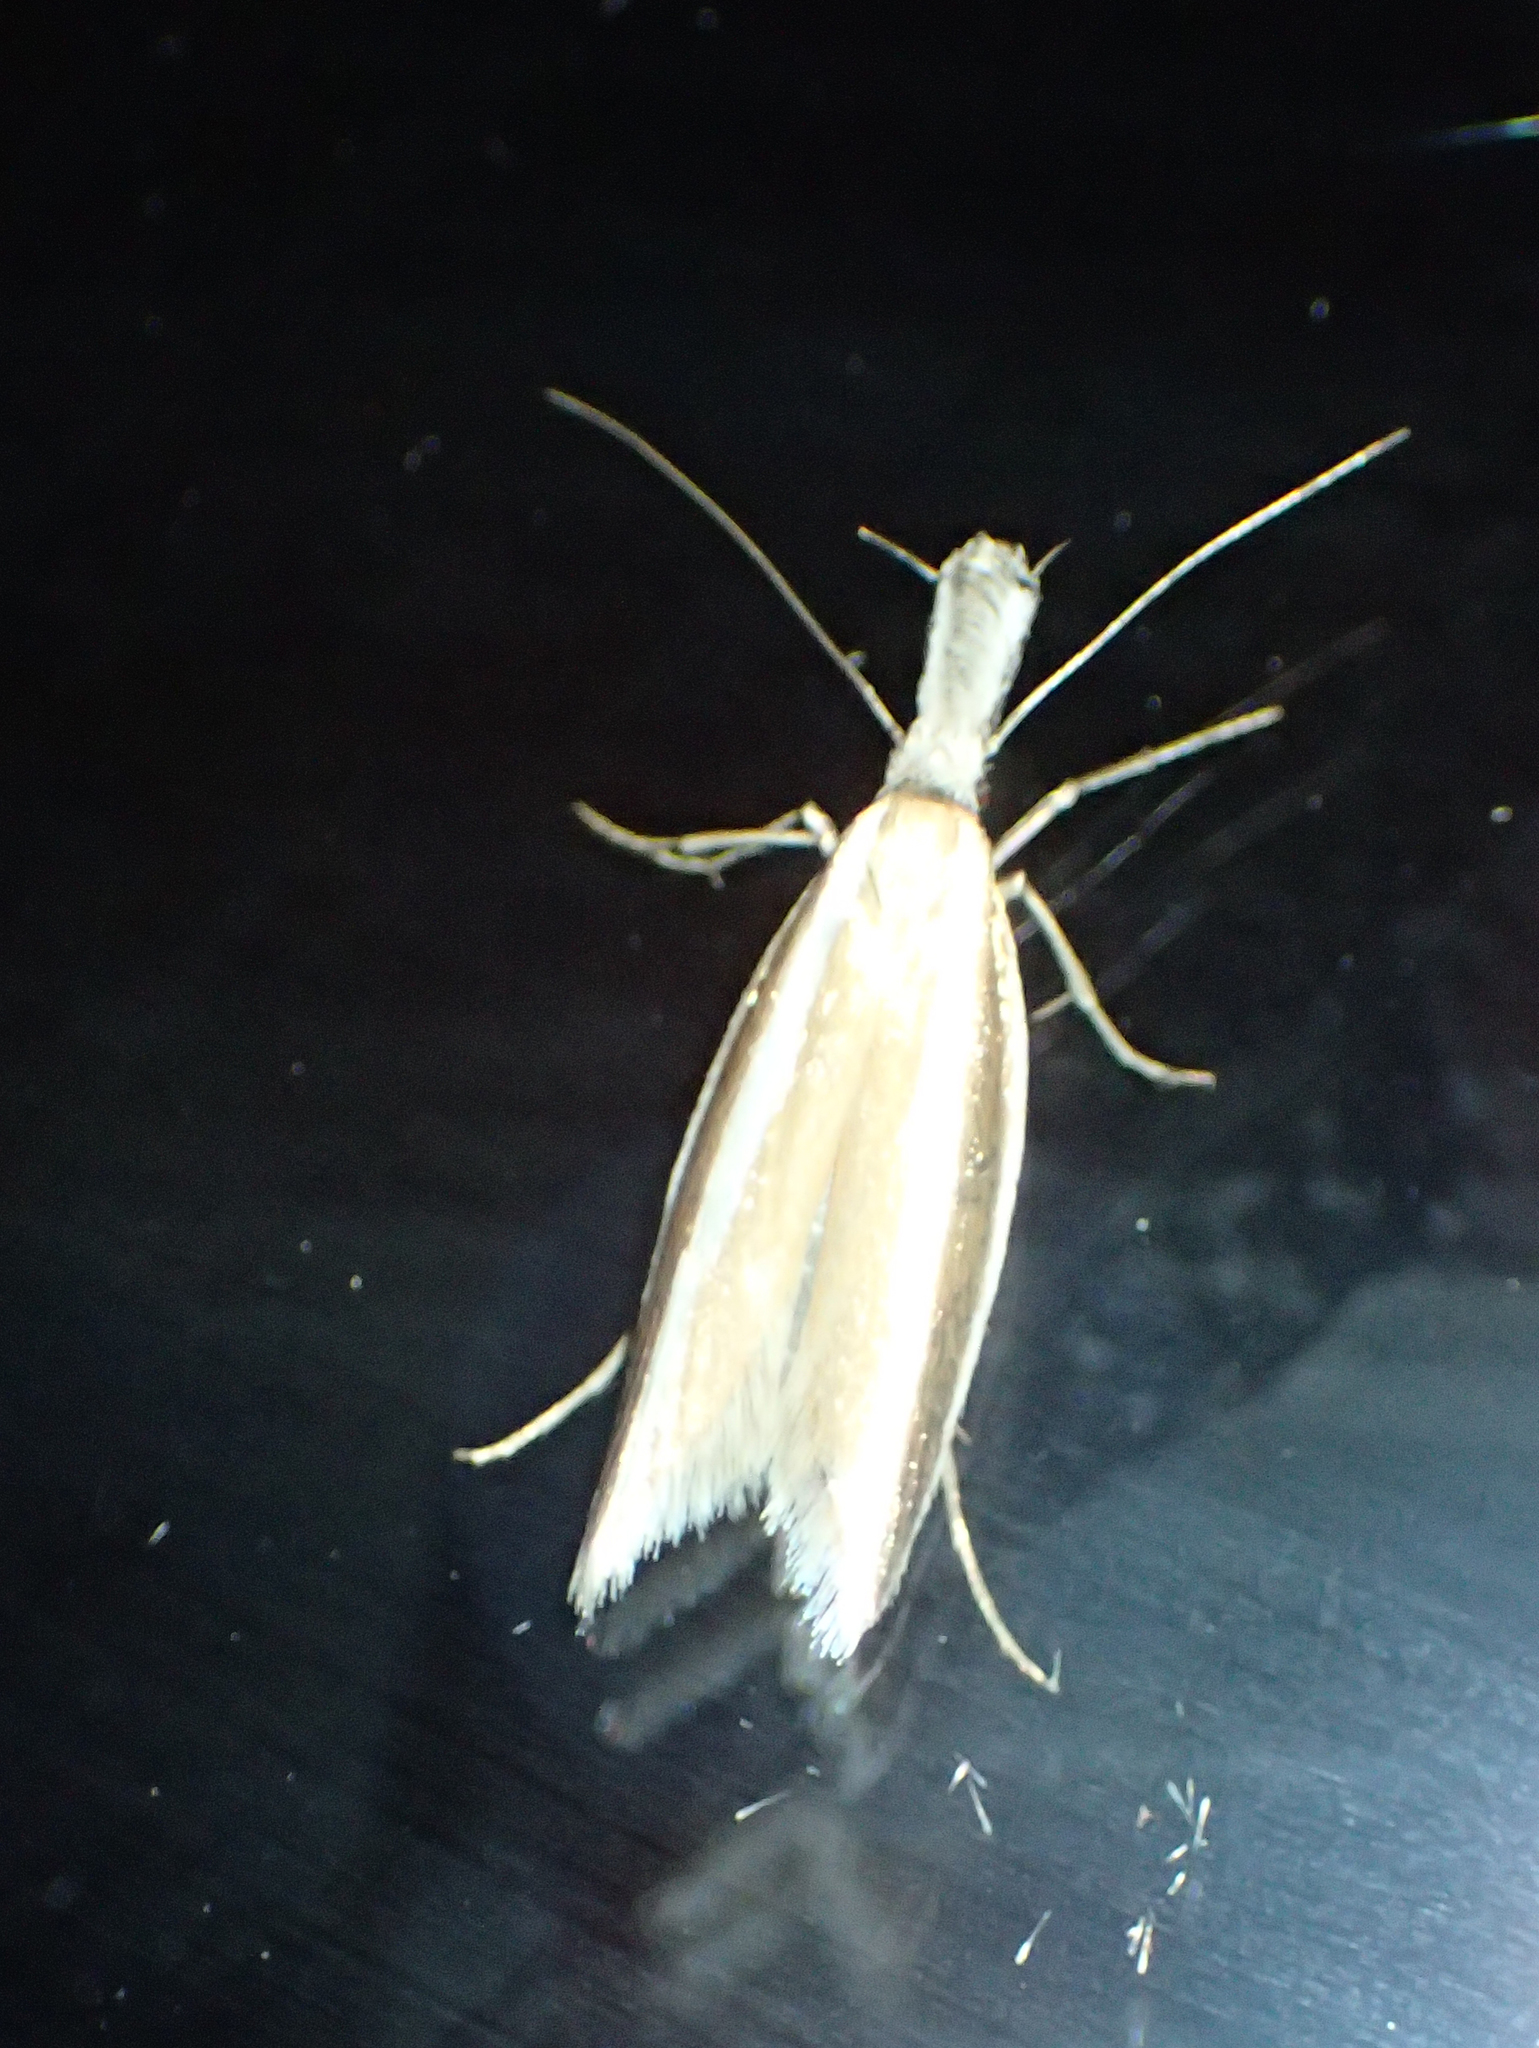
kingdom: Animalia
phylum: Arthropoda
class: Insecta
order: Lepidoptera
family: Oecophoridae
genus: Pleurota
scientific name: Pleurota aristella
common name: Southern streak
